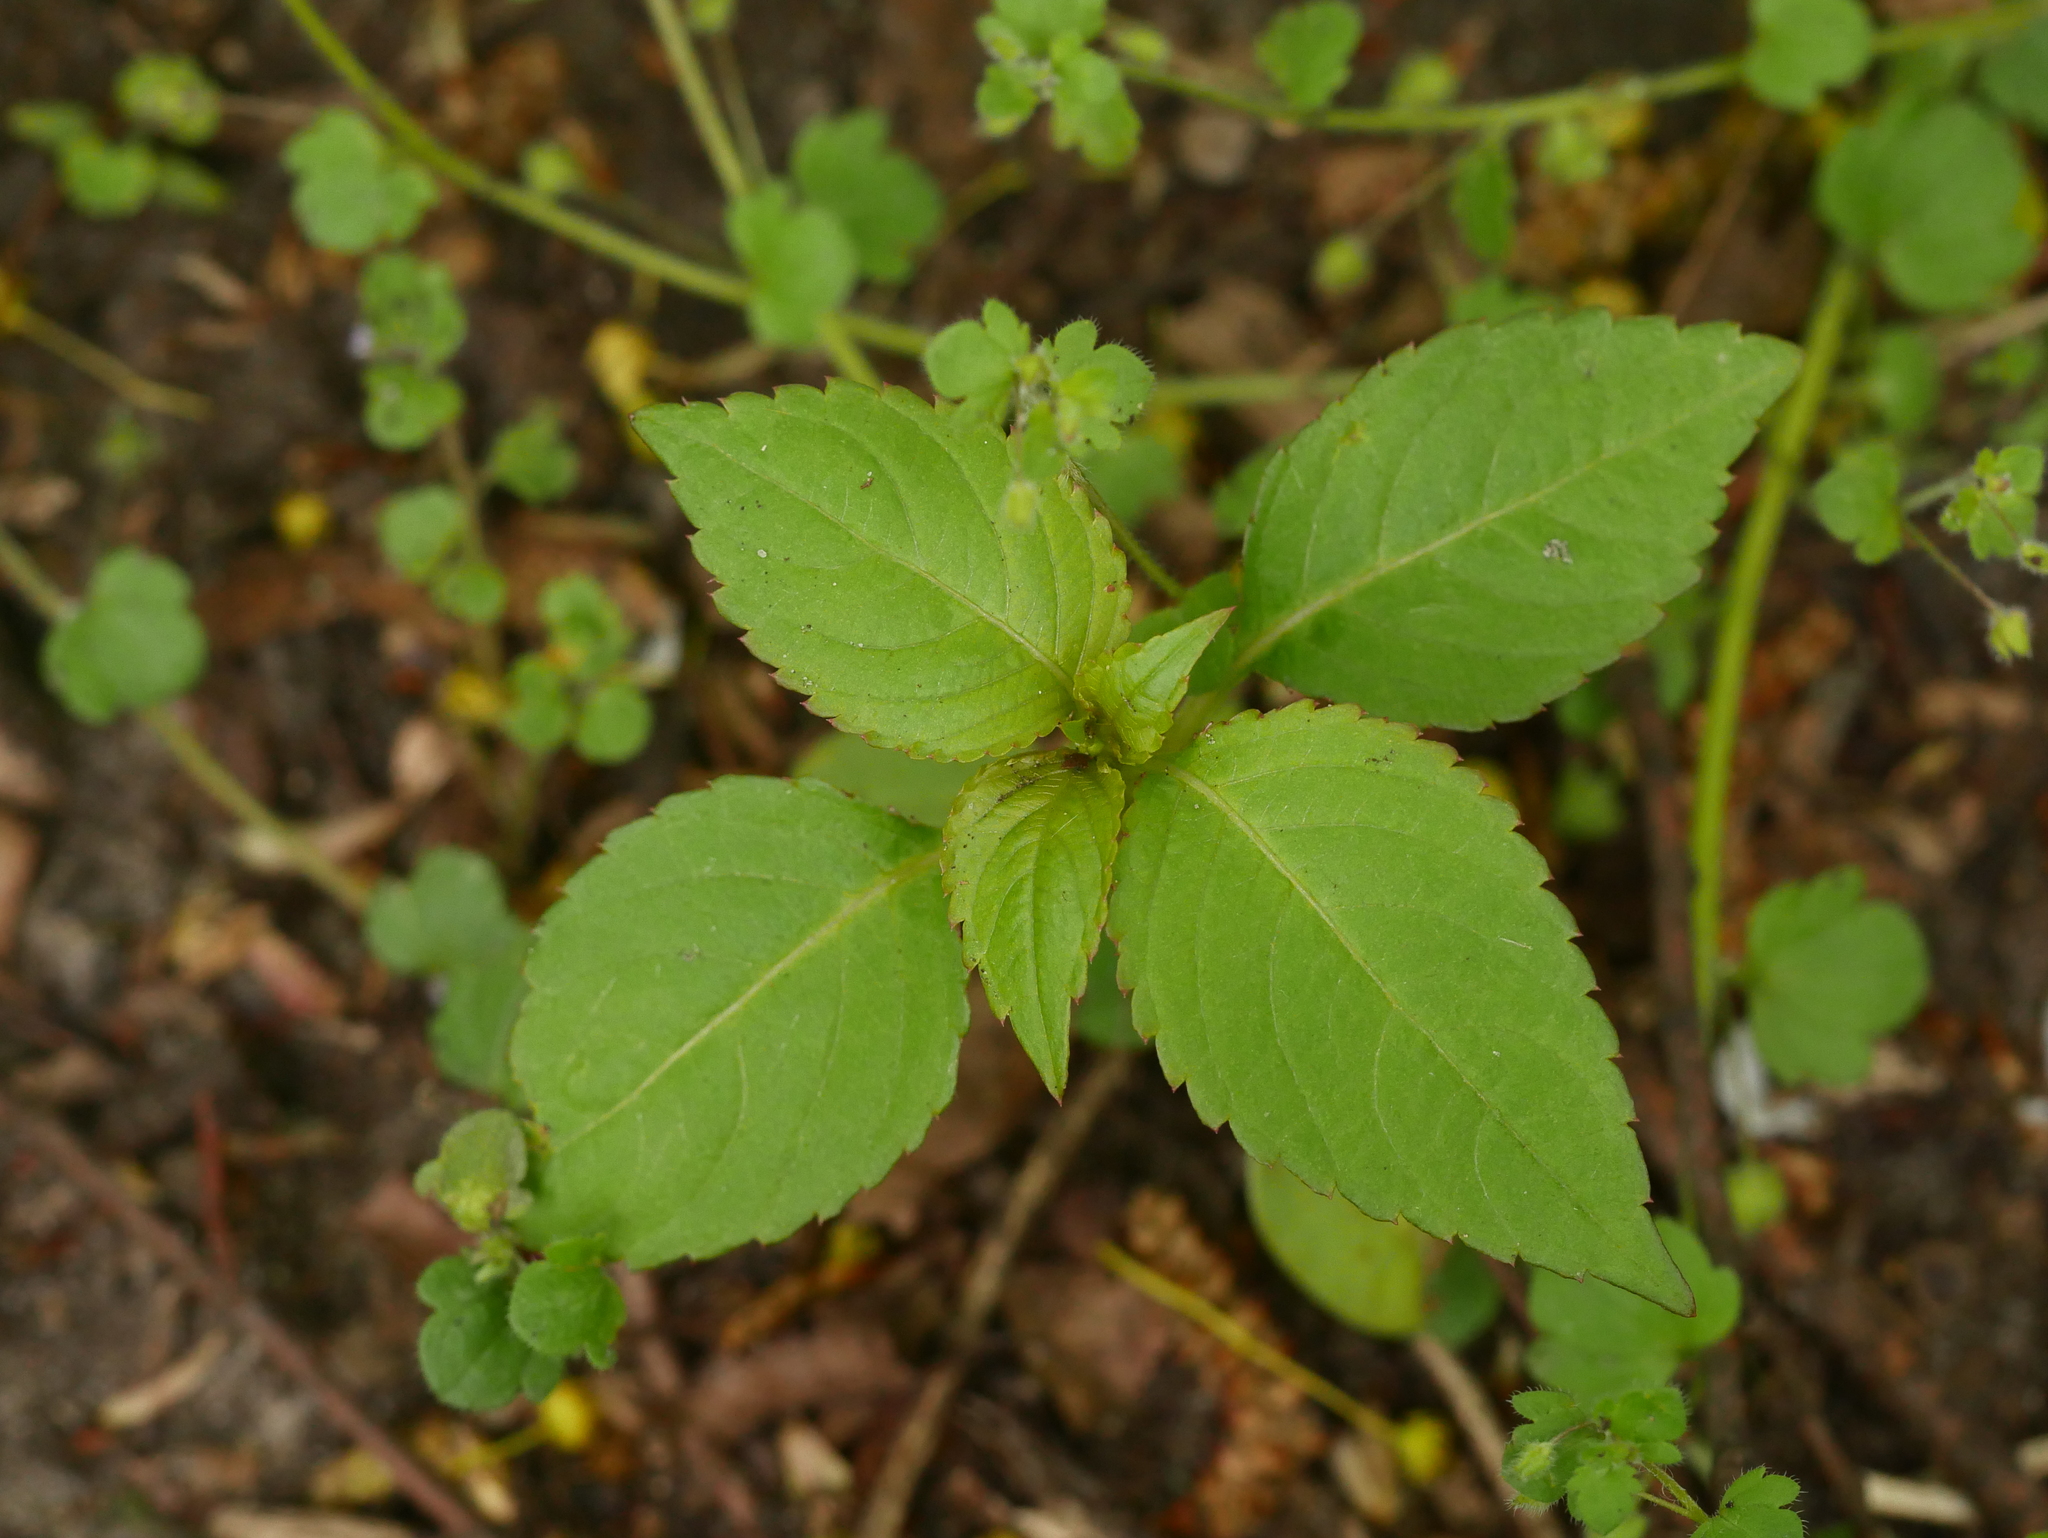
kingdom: Plantae
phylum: Tracheophyta
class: Magnoliopsida
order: Ericales
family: Balsaminaceae
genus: Impatiens
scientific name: Impatiens parviflora
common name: Small balsam
